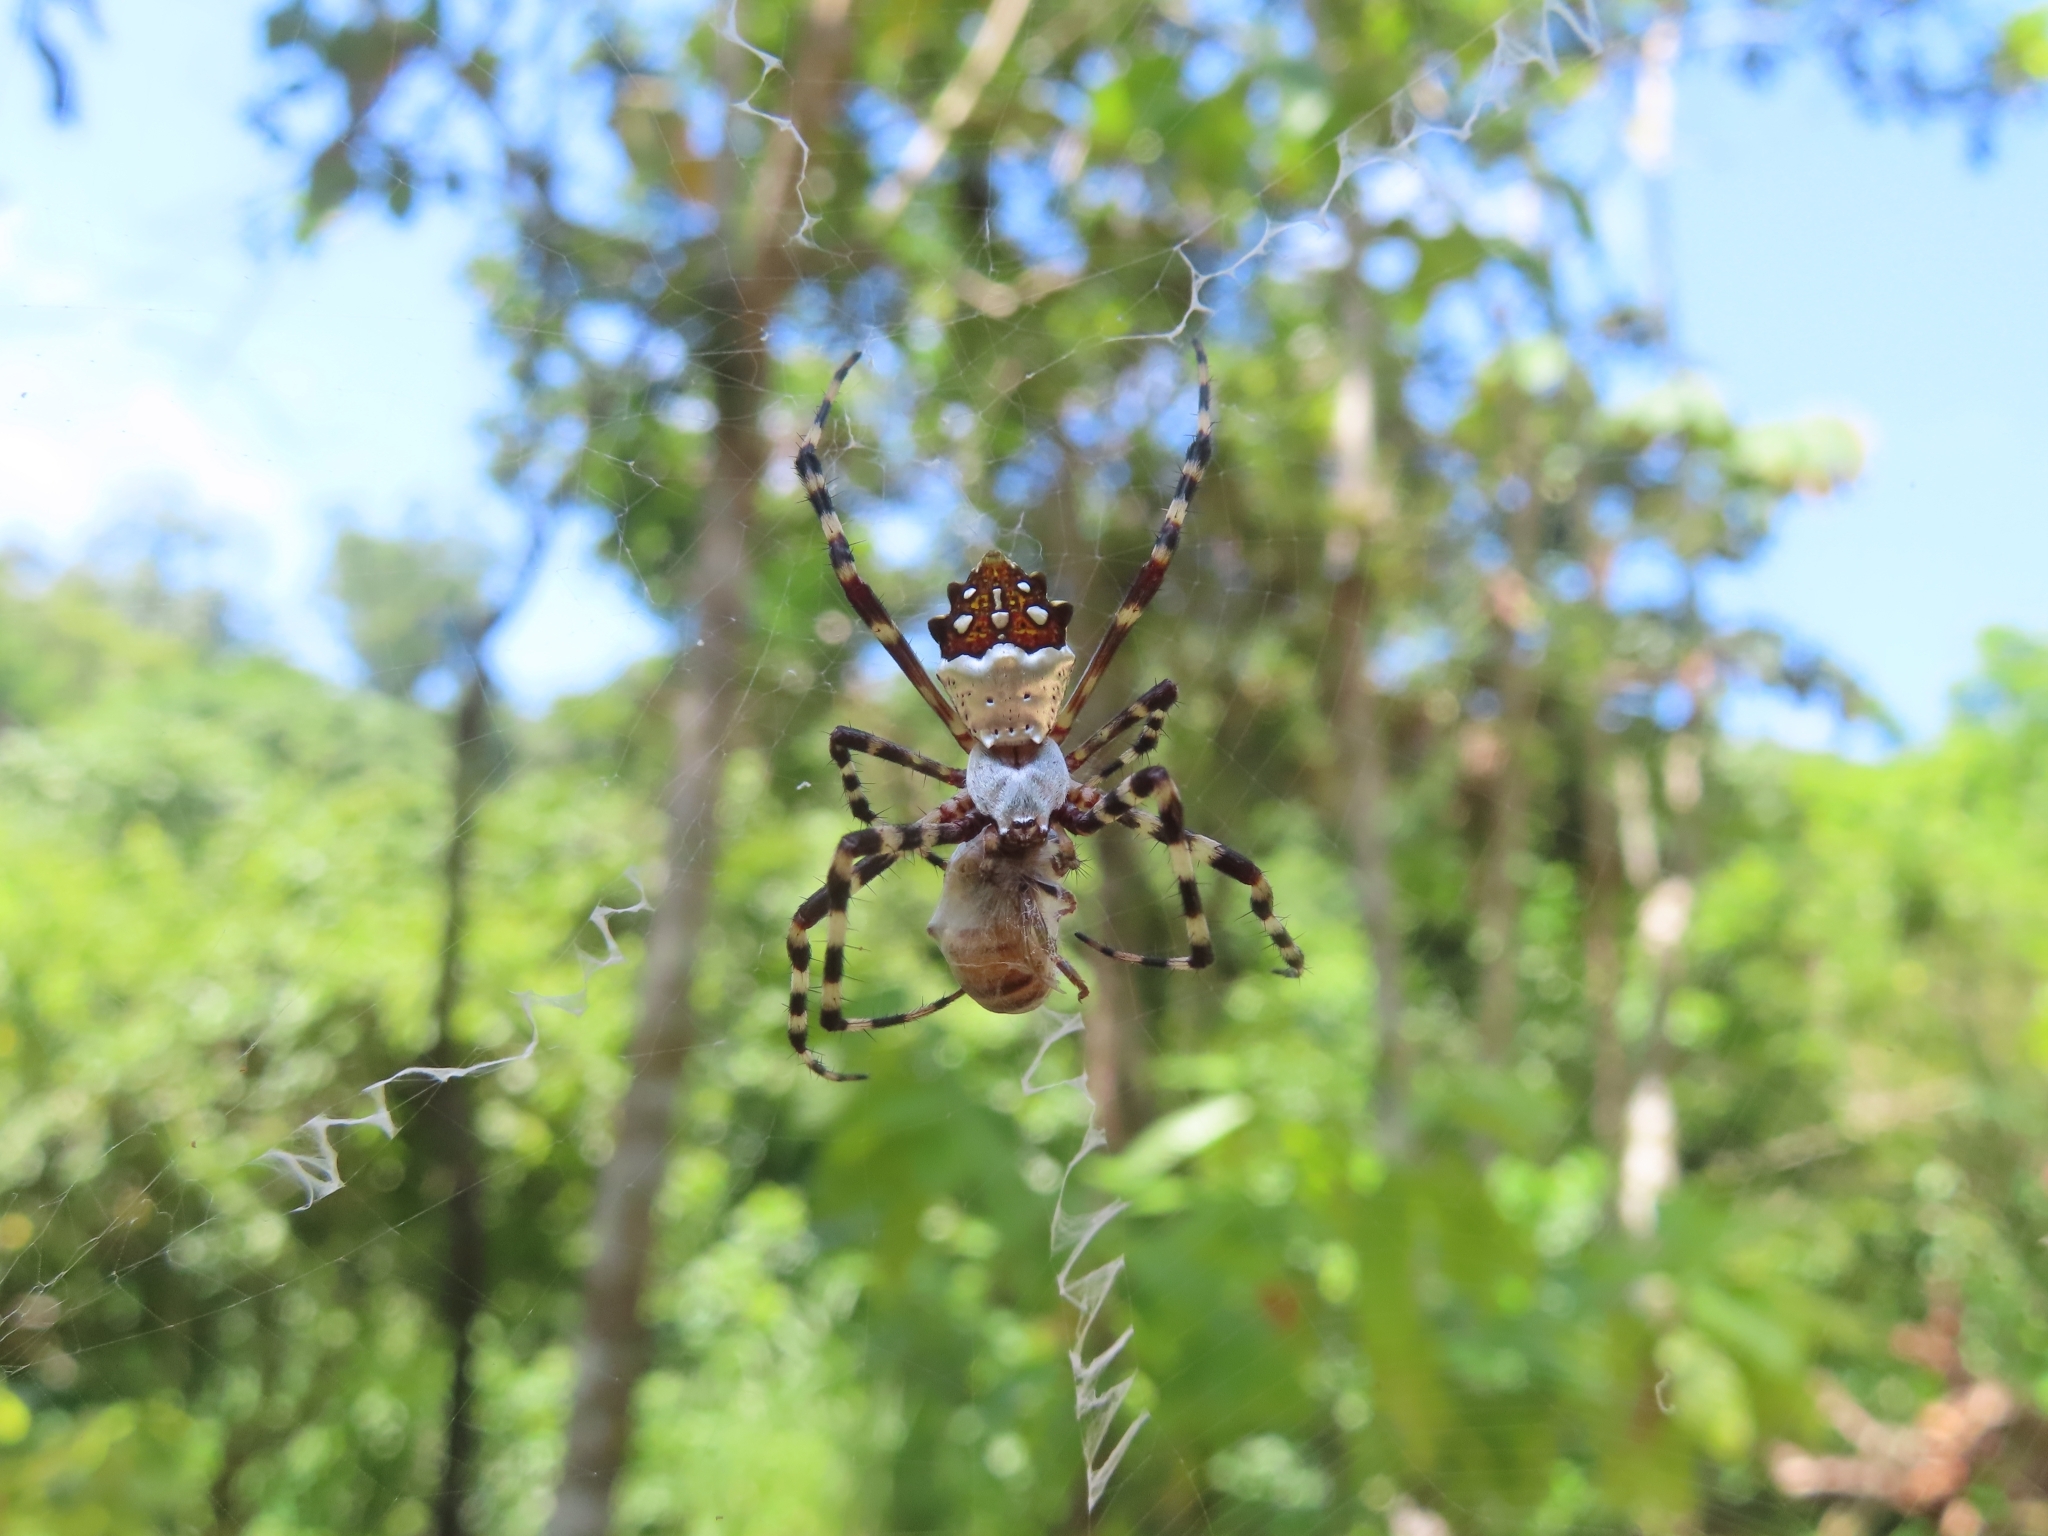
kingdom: Animalia
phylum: Arthropoda
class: Arachnida
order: Araneae
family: Araneidae
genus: Argiope
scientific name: Argiope argentata
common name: Orb weavers
